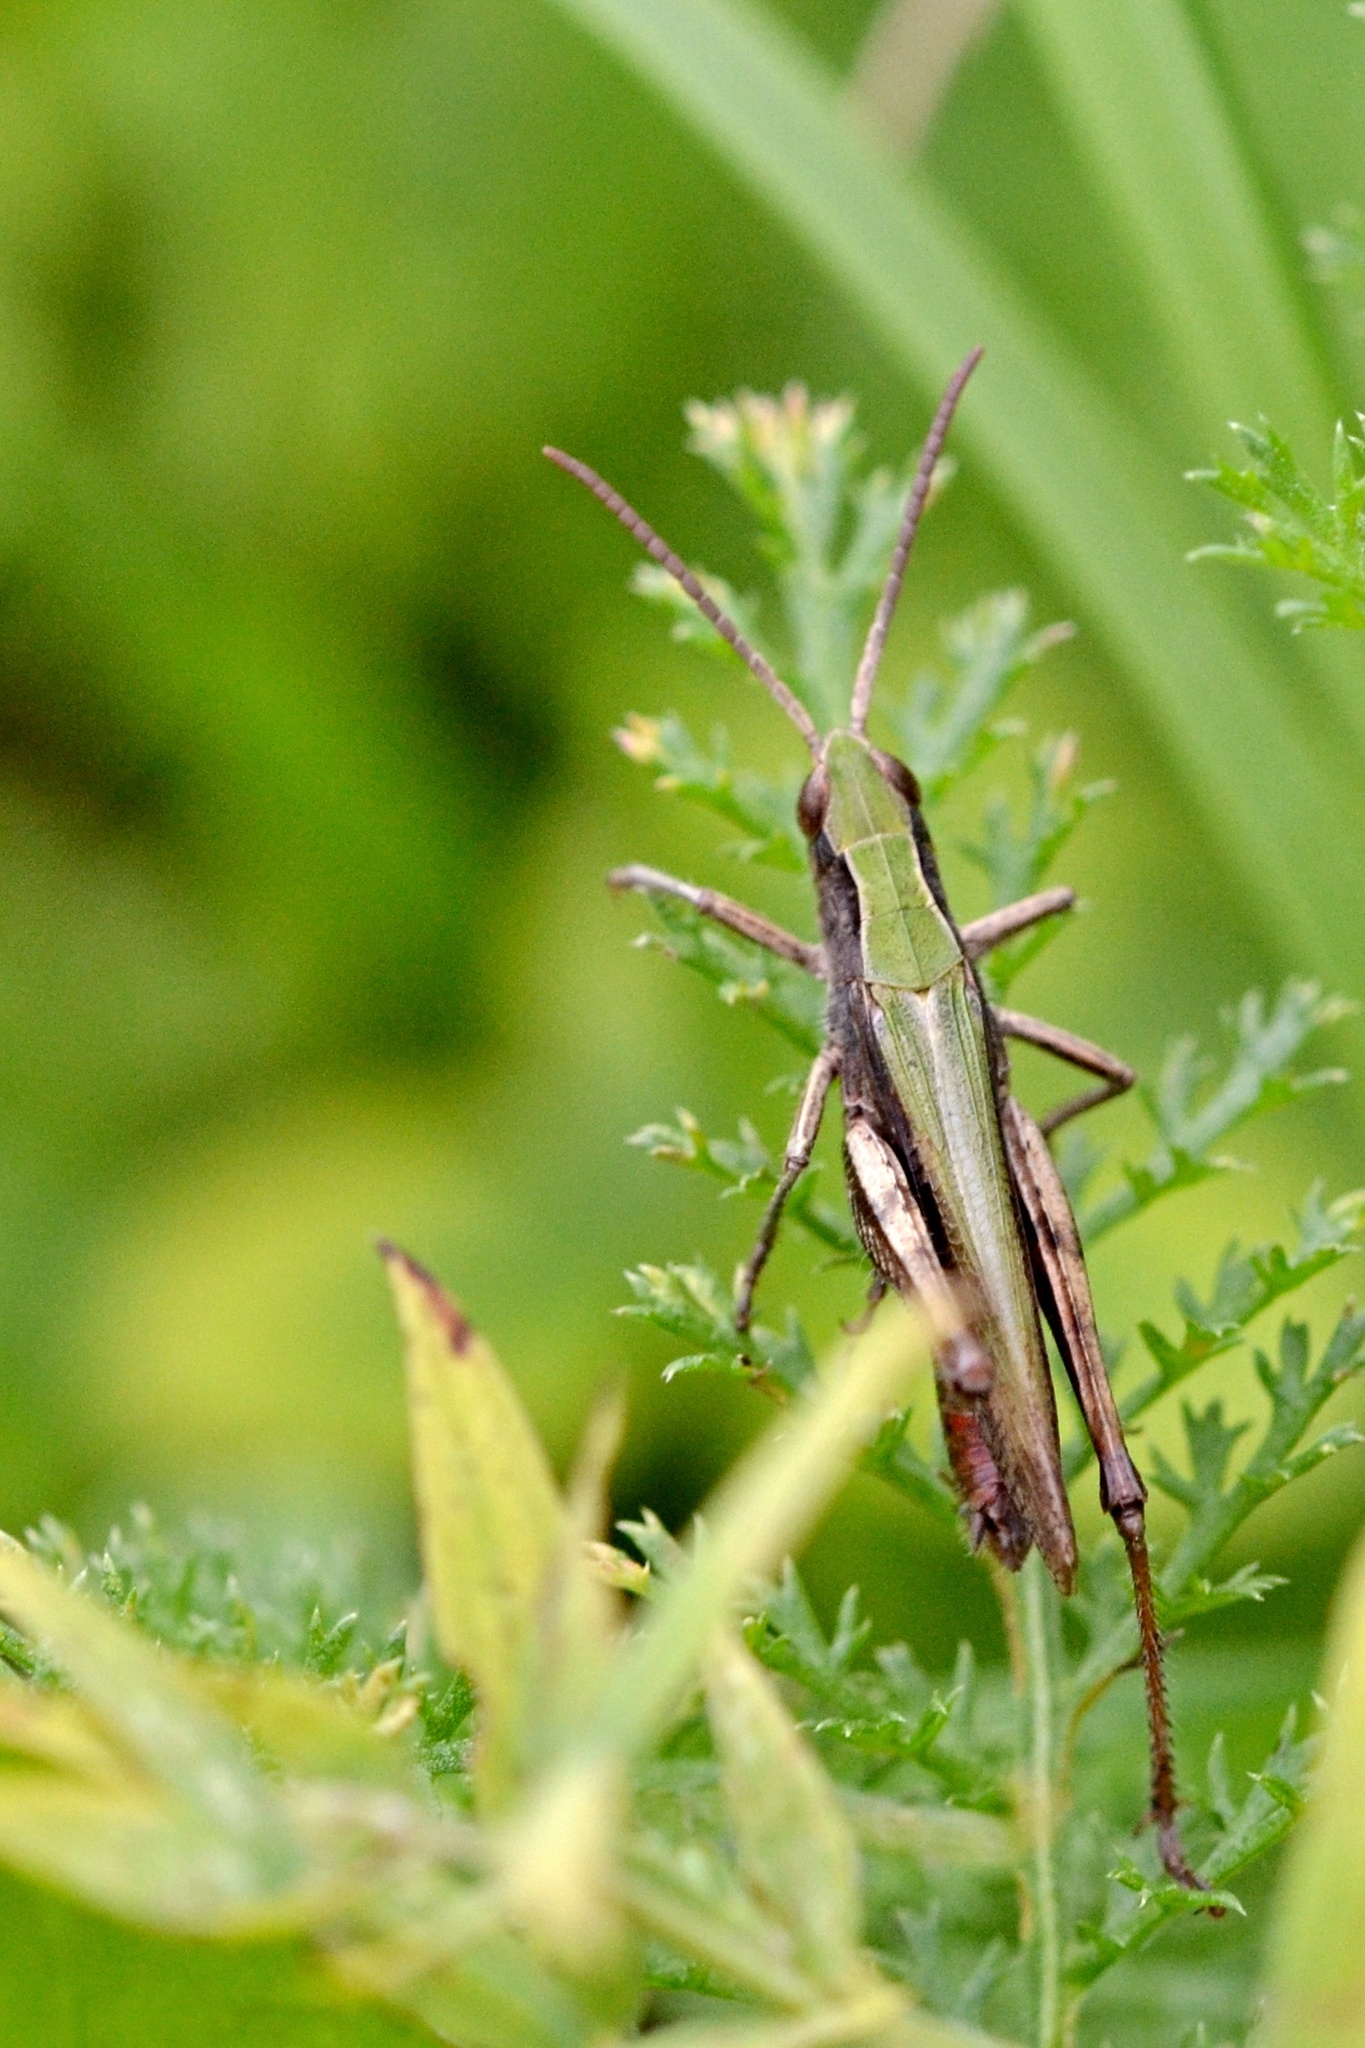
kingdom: Animalia
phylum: Arthropoda
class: Insecta
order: Orthoptera
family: Acrididae
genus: Chorthippus
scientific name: Chorthippus dorsatus
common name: Steppe grasshopper
